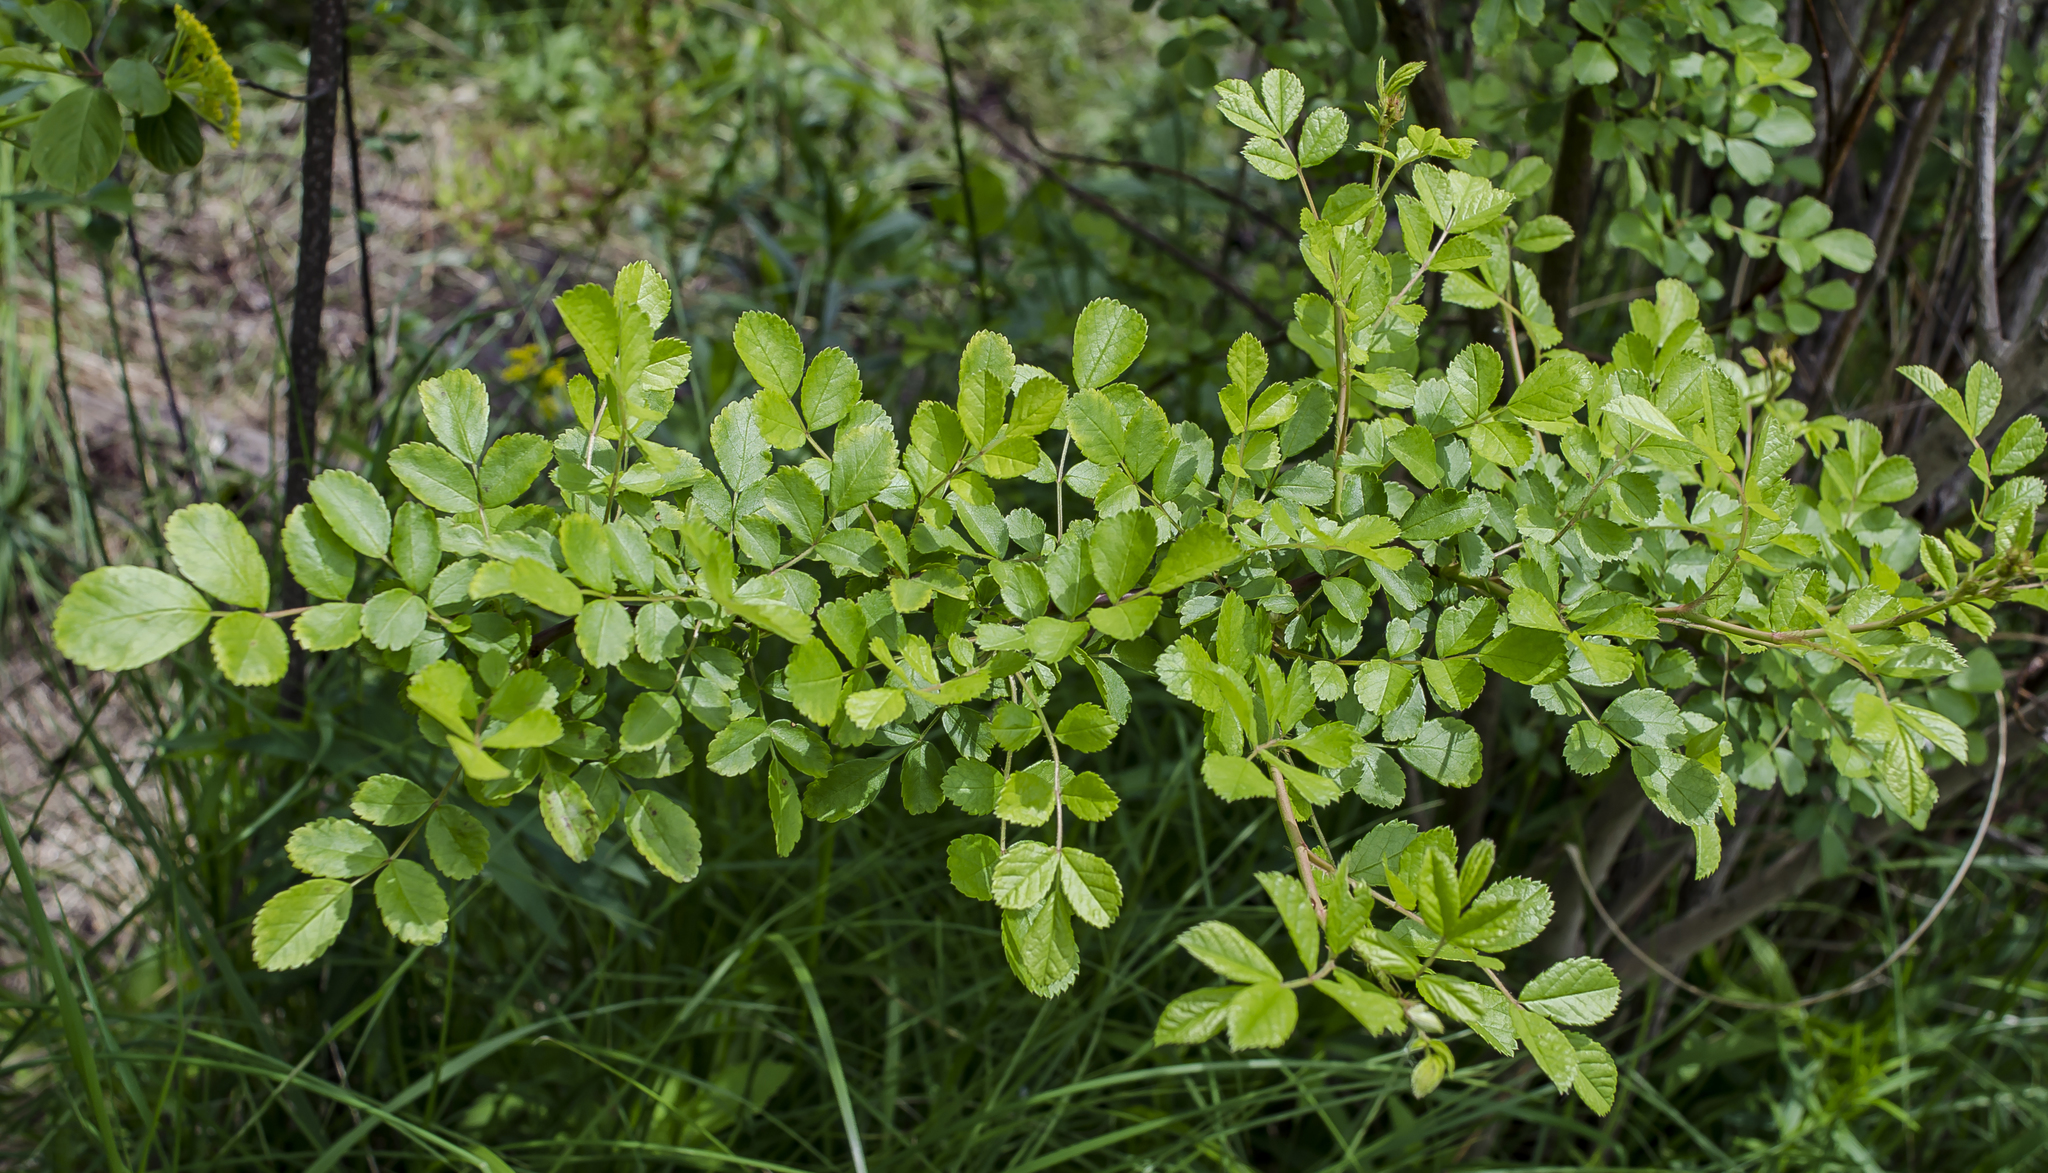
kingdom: Plantae
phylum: Tracheophyta
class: Magnoliopsida
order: Rosales
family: Rosaceae
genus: Rosa
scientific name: Rosa multiflora
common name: Multiflora rose
